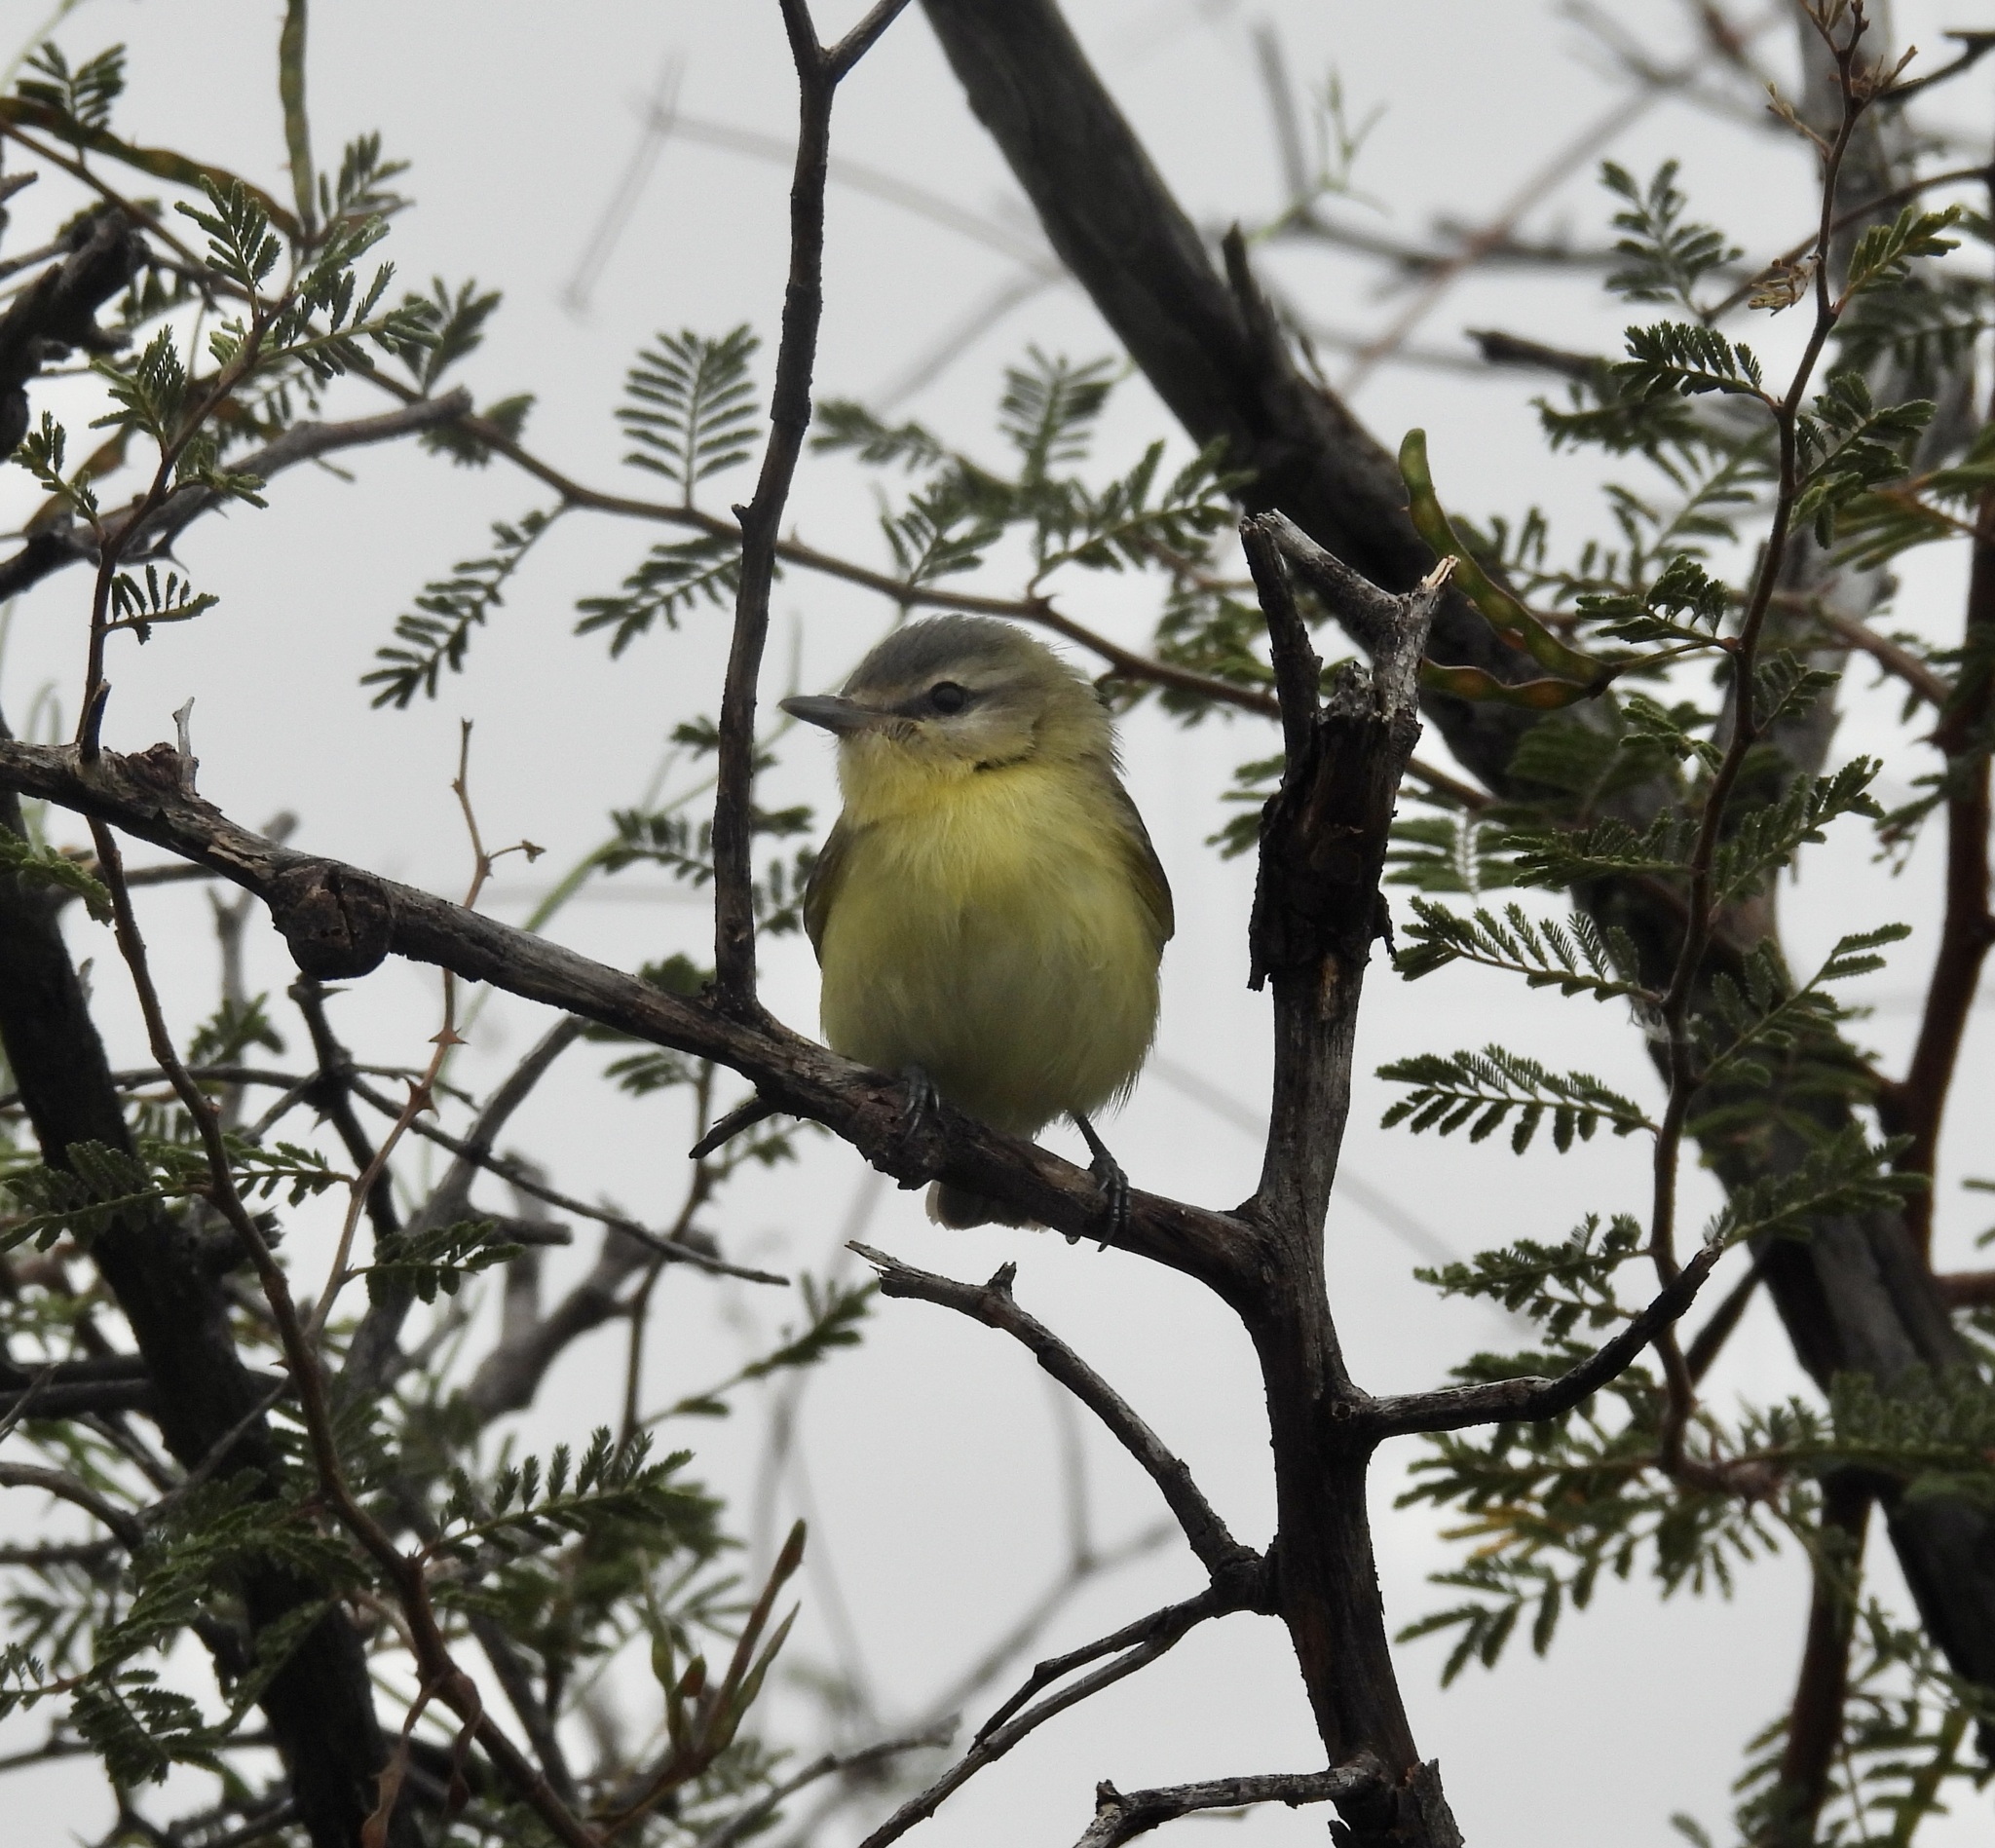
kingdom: Animalia
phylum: Chordata
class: Aves
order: Passeriformes
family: Vireonidae
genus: Vireo
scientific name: Vireo philadelphicus
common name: Philadelphia vireo
